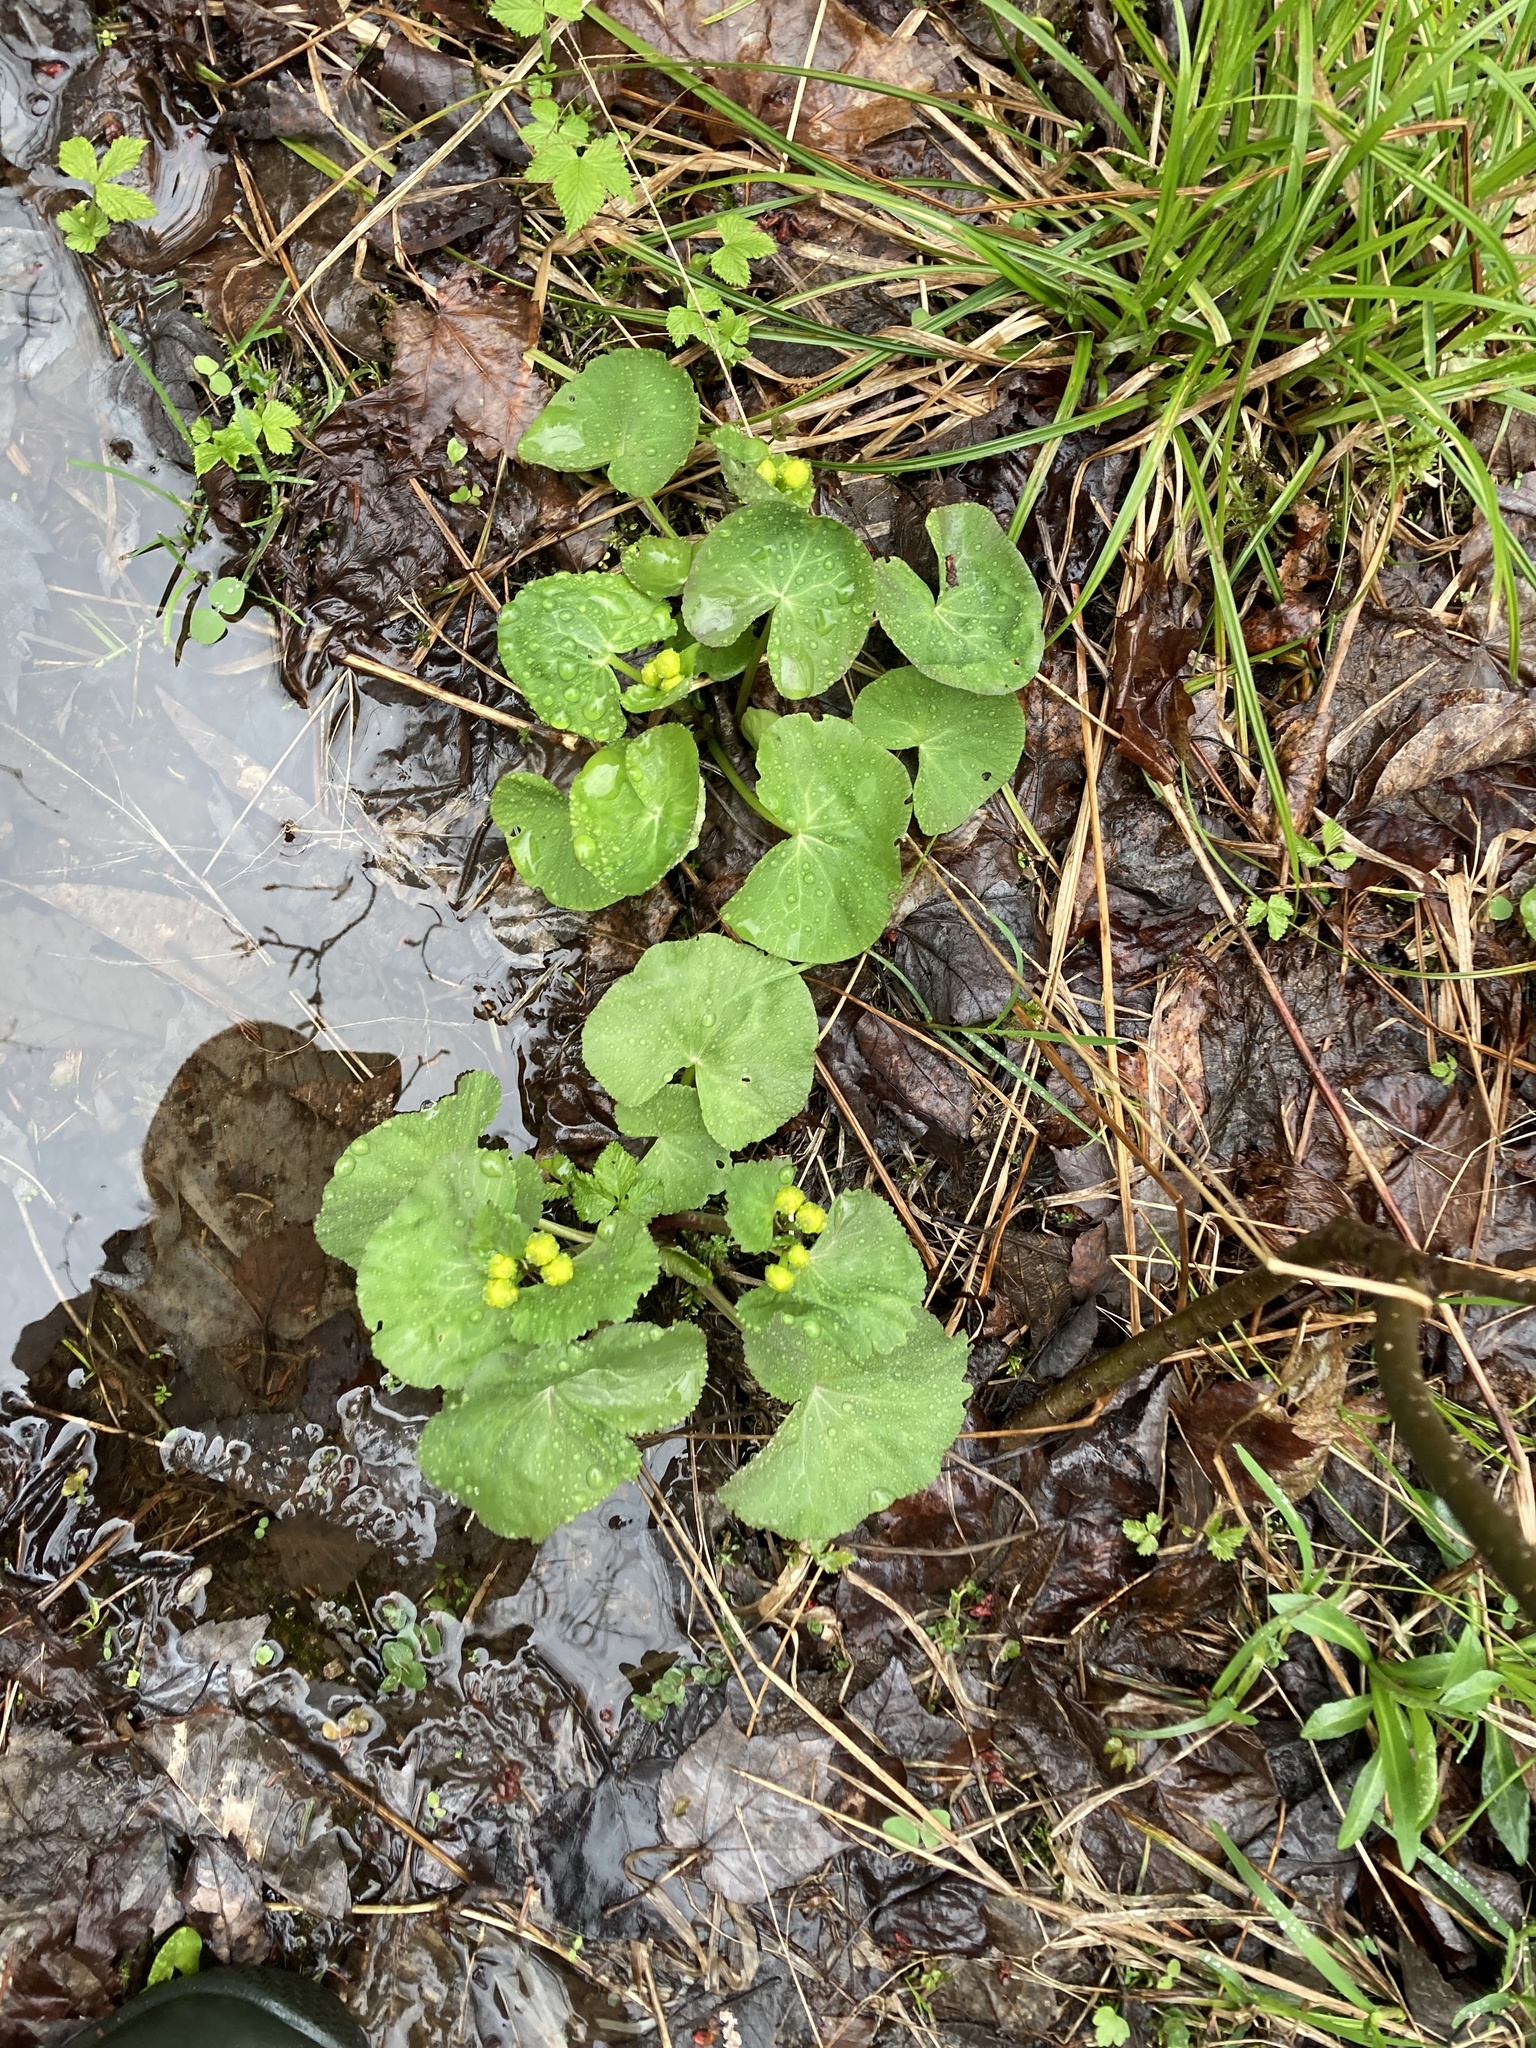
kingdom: Plantae
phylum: Tracheophyta
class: Magnoliopsida
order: Ranunculales
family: Ranunculaceae
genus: Caltha
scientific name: Caltha palustris
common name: Marsh marigold
